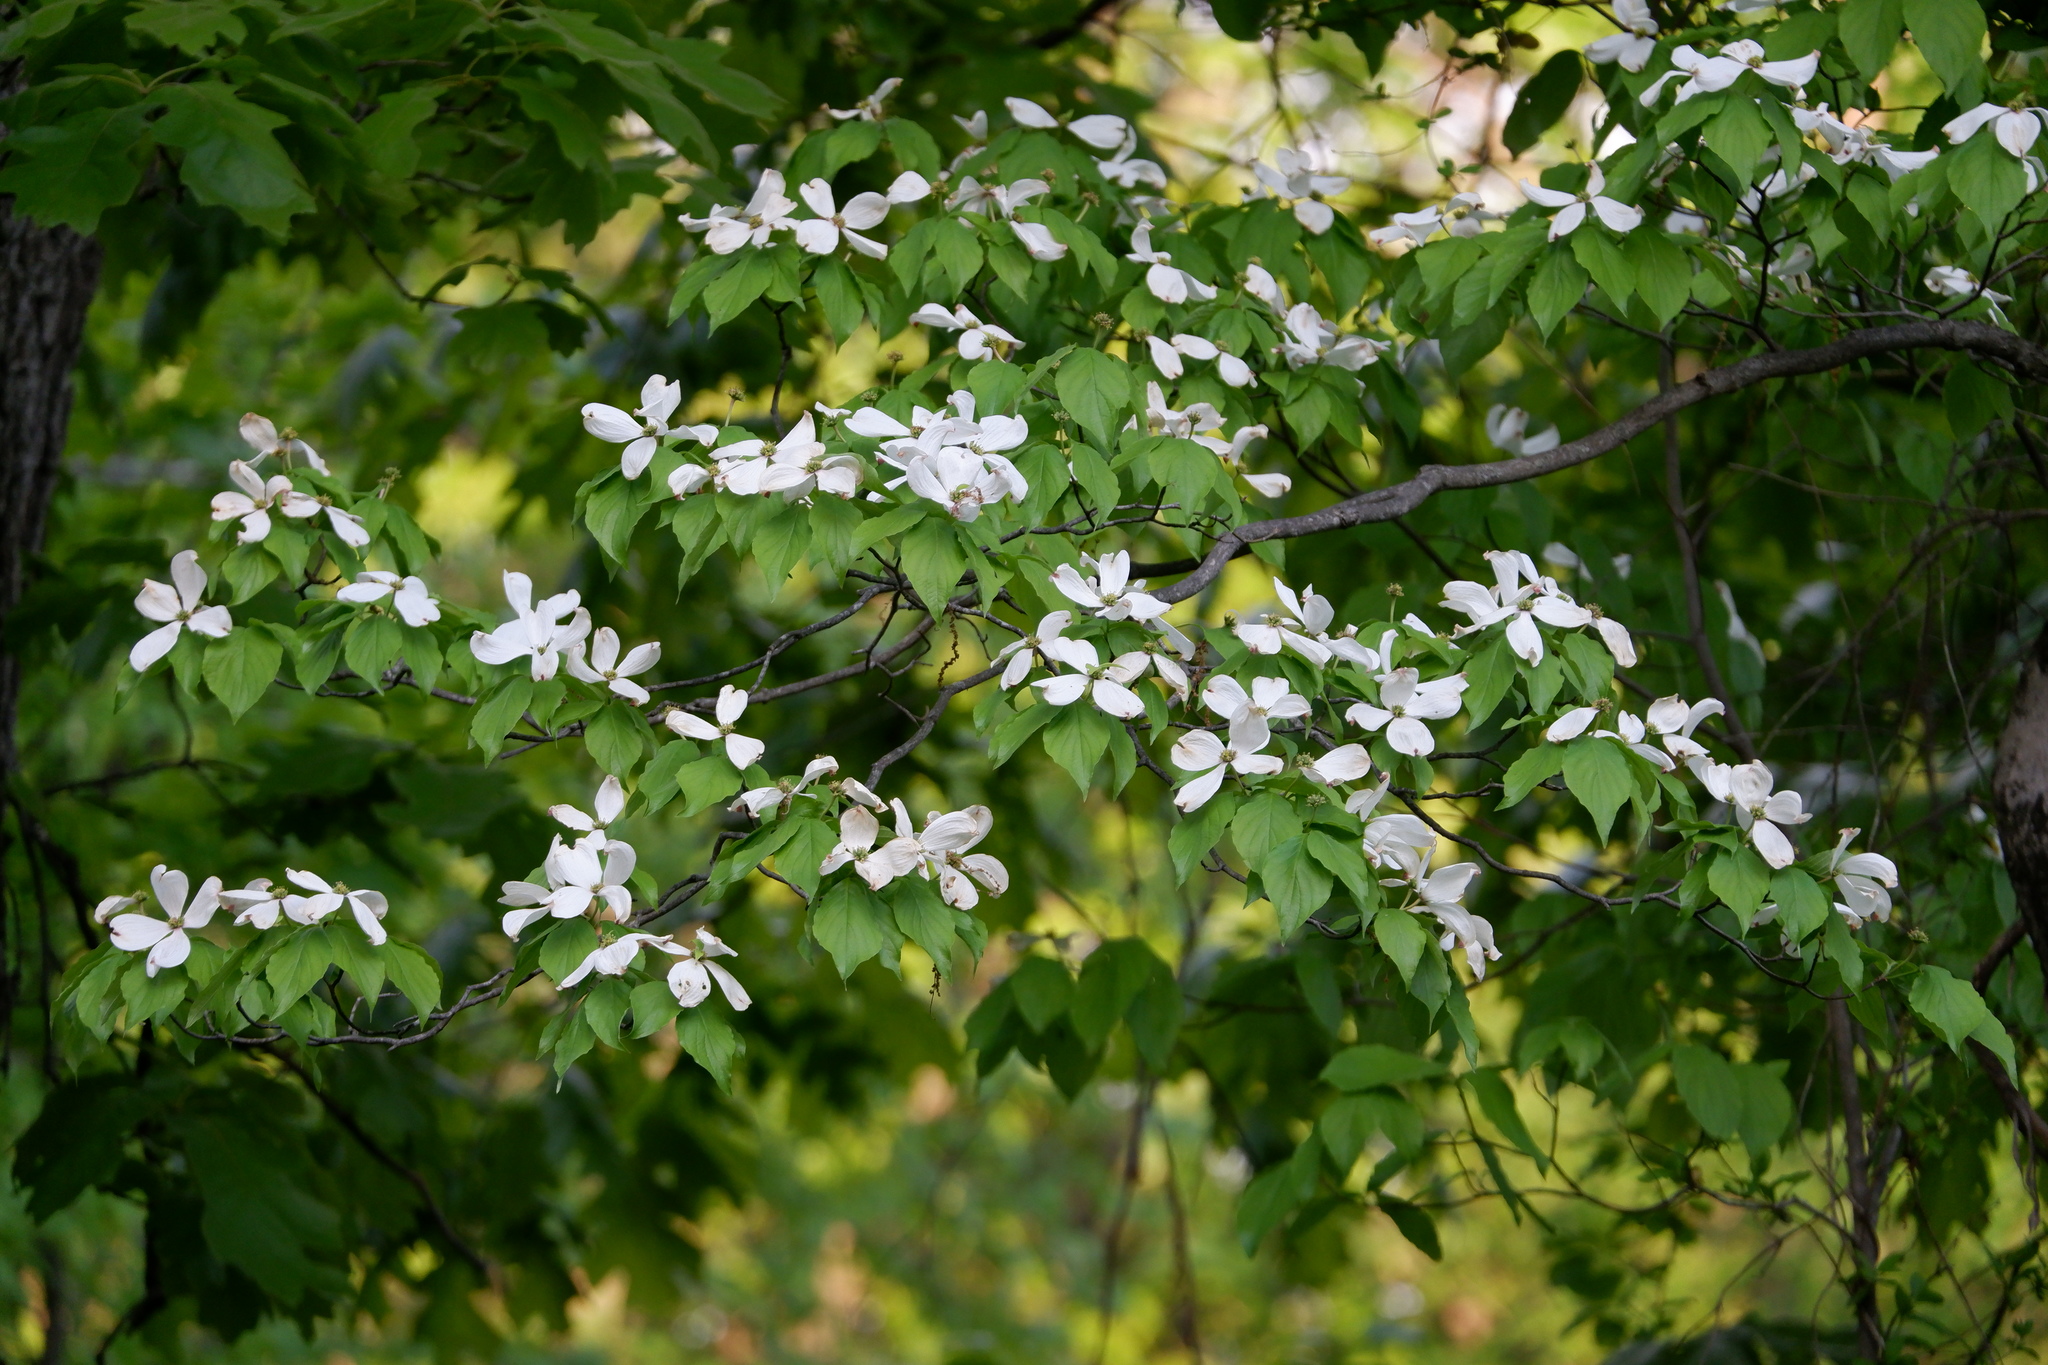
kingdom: Plantae
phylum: Tracheophyta
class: Magnoliopsida
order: Cornales
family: Cornaceae
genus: Cornus
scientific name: Cornus florida
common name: Flowering dogwood
